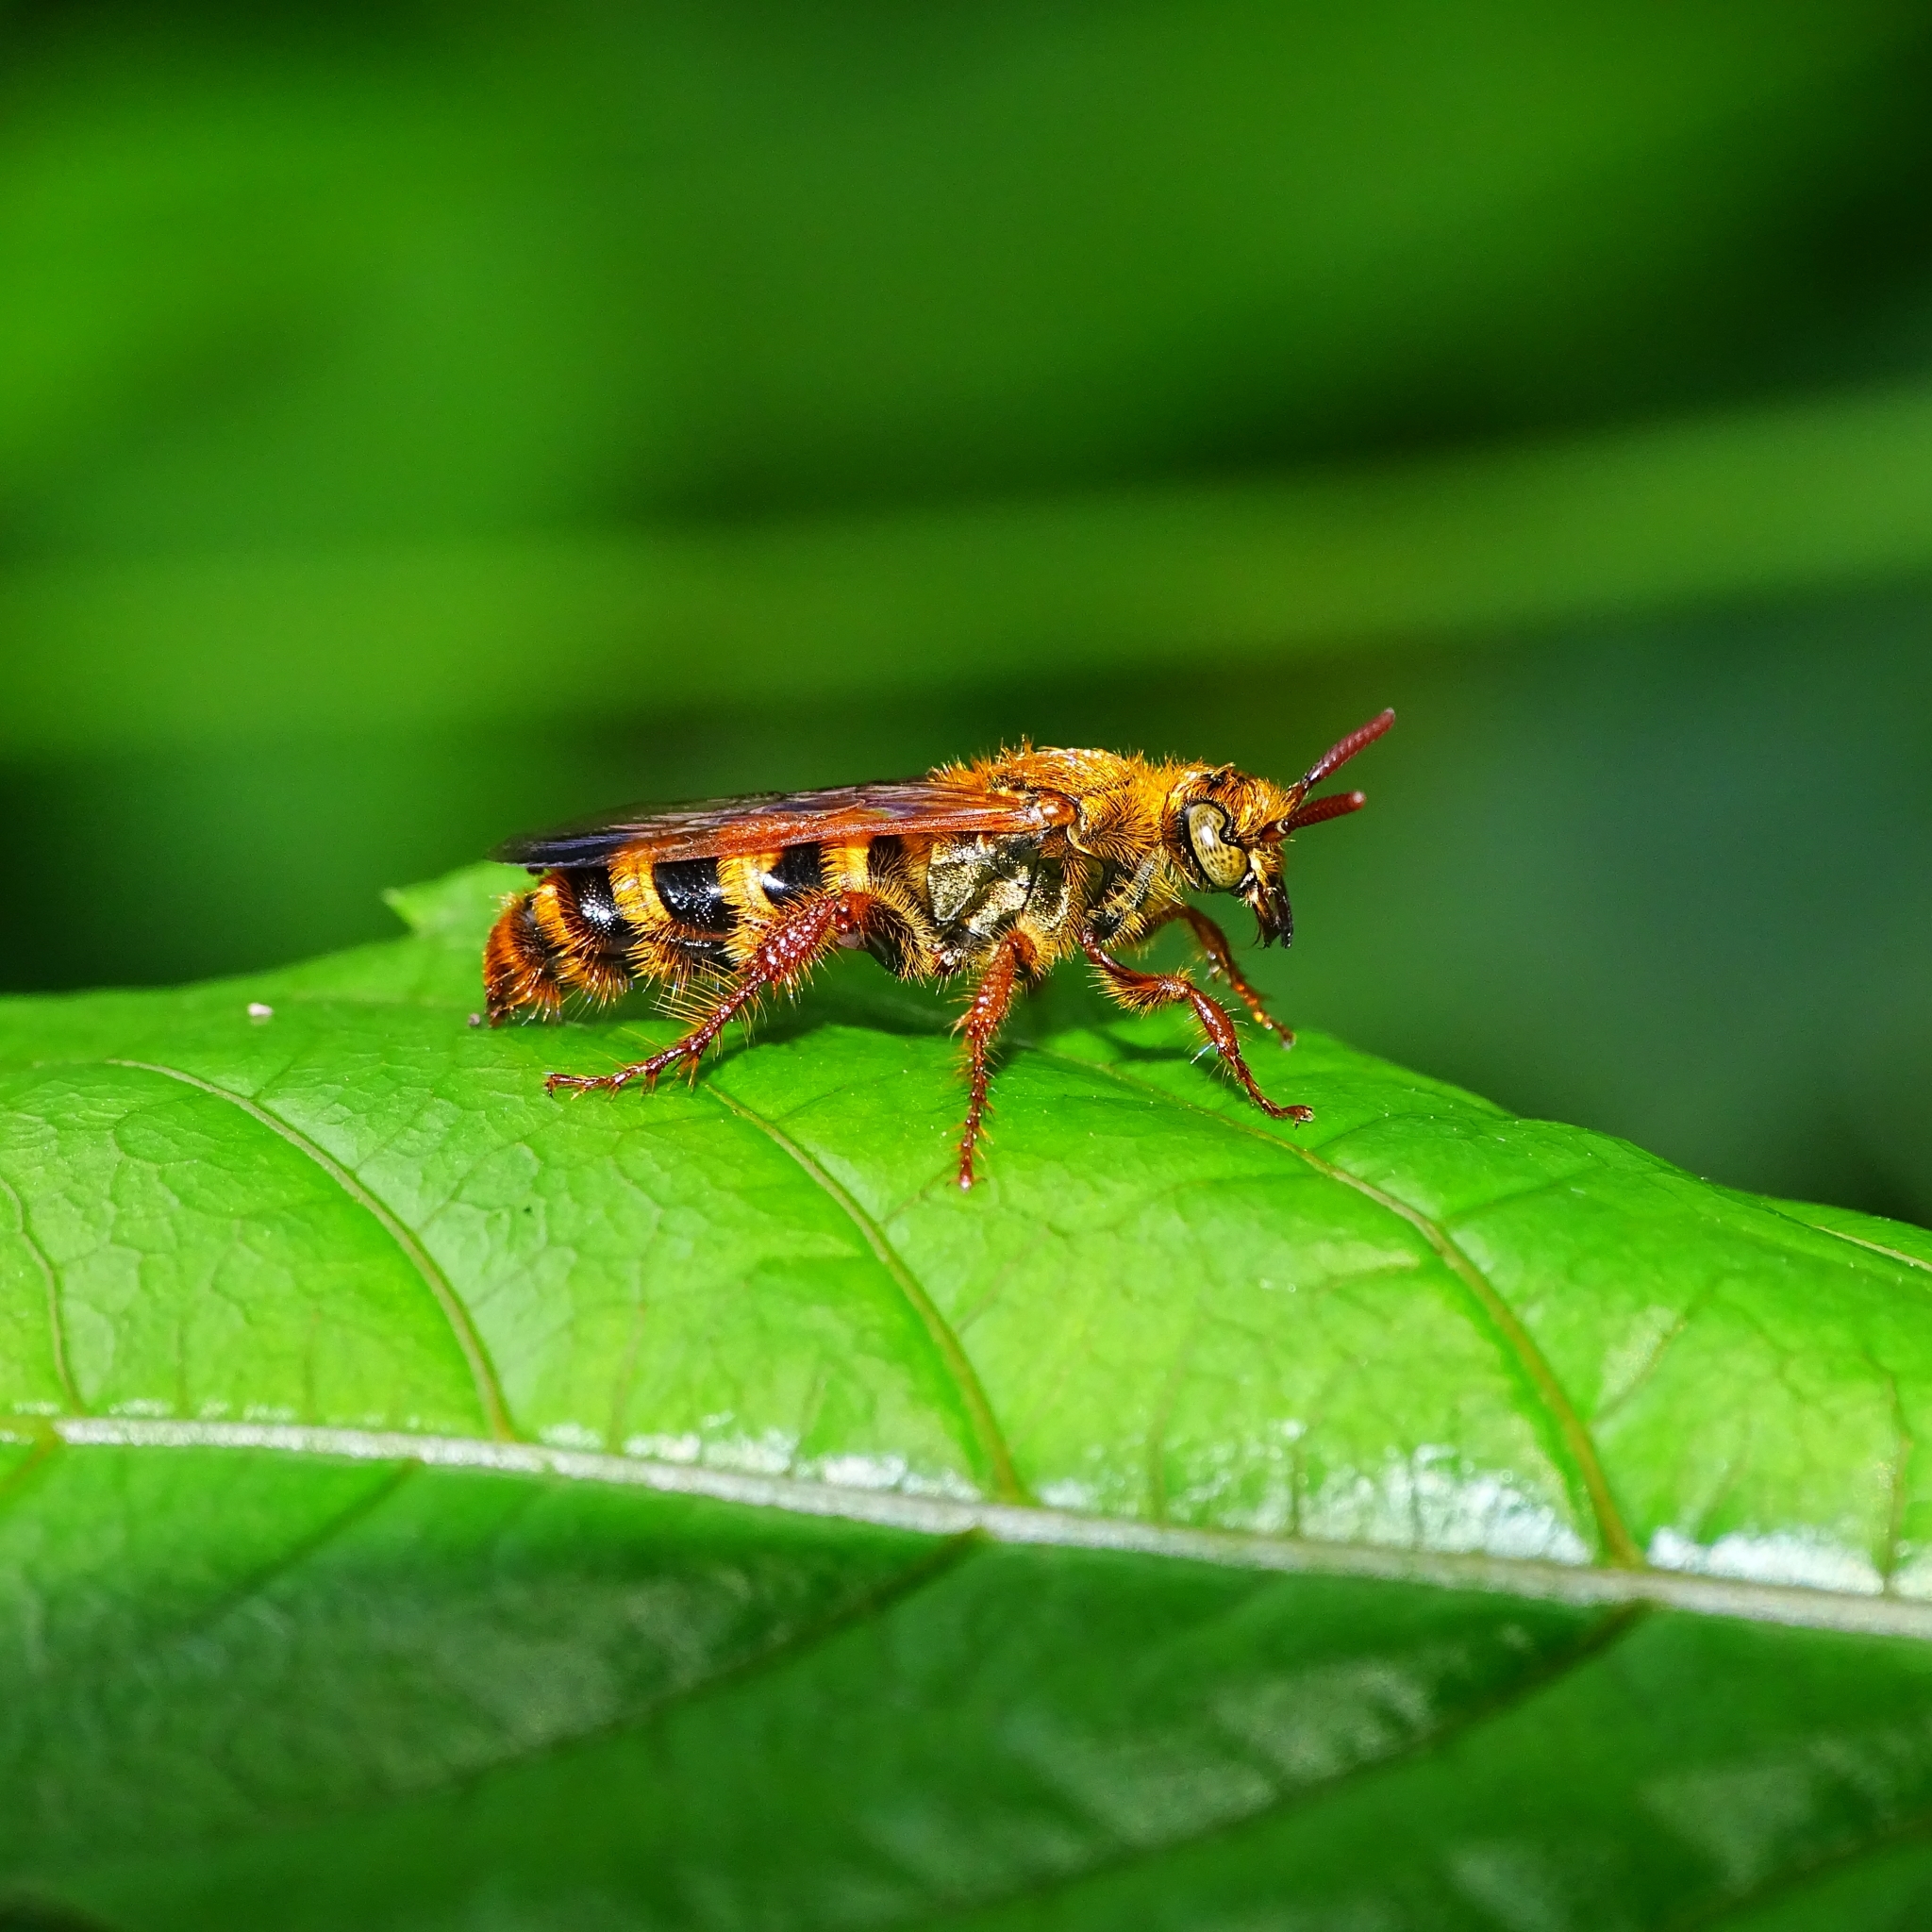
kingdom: Animalia
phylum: Arthropoda
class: Insecta
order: Hymenoptera
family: Scoliidae
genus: Campsomeris
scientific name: Campsomeris phalerata
